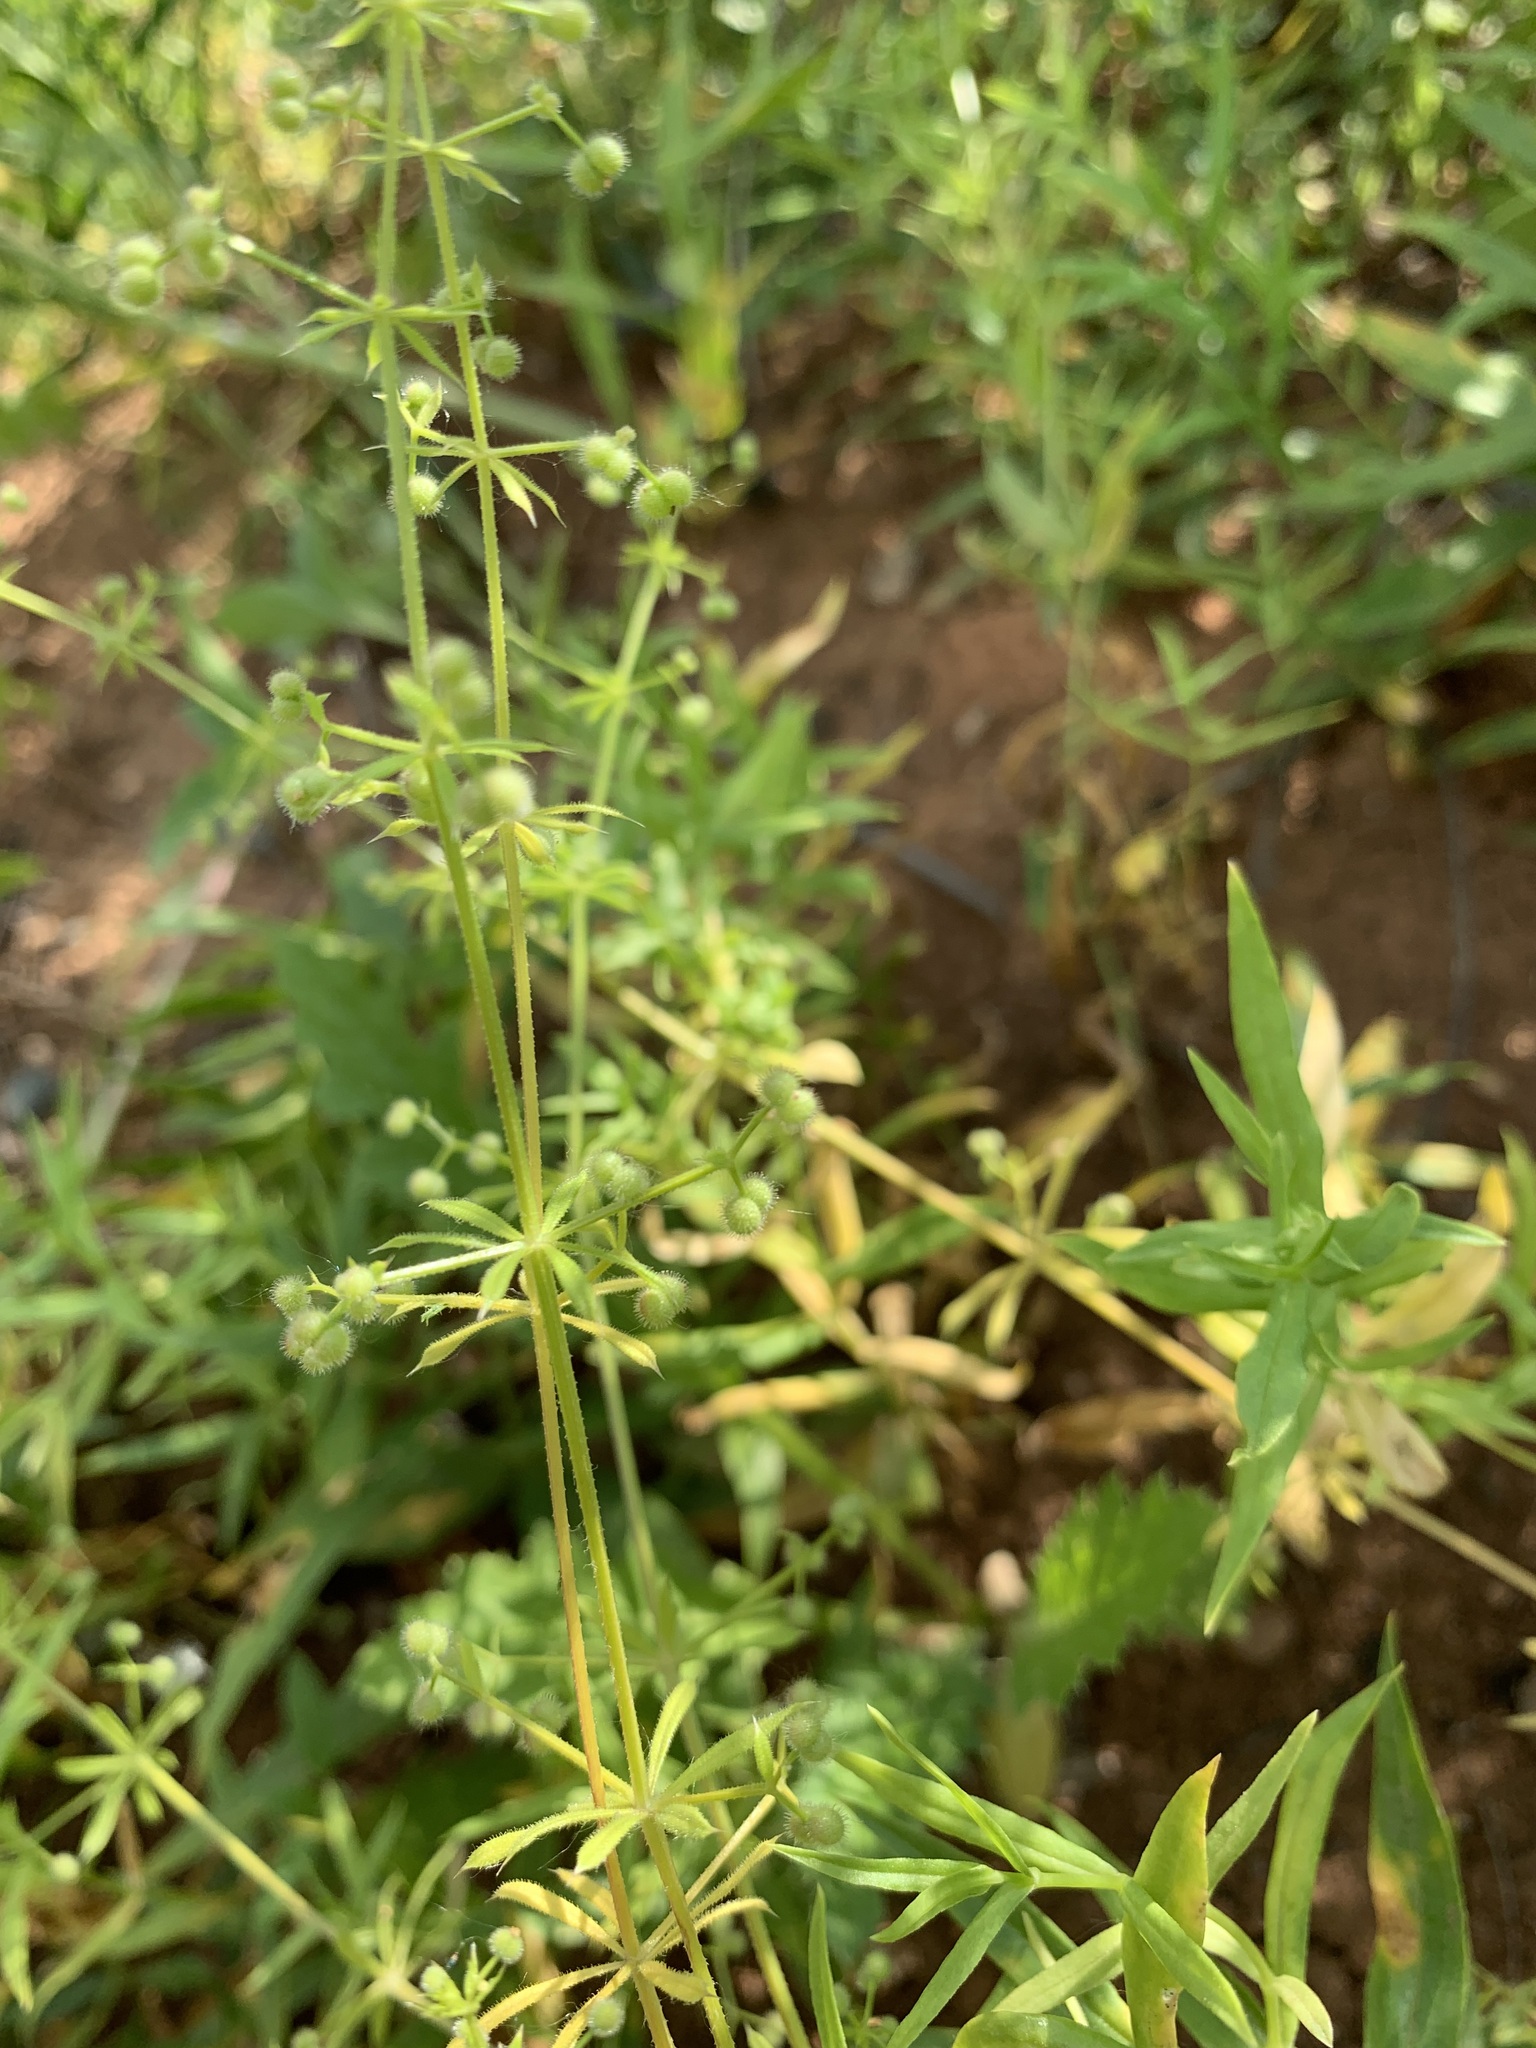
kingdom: Plantae
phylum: Tracheophyta
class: Magnoliopsida
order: Gentianales
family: Rubiaceae
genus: Galium
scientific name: Galium spurium
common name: False cleavers
